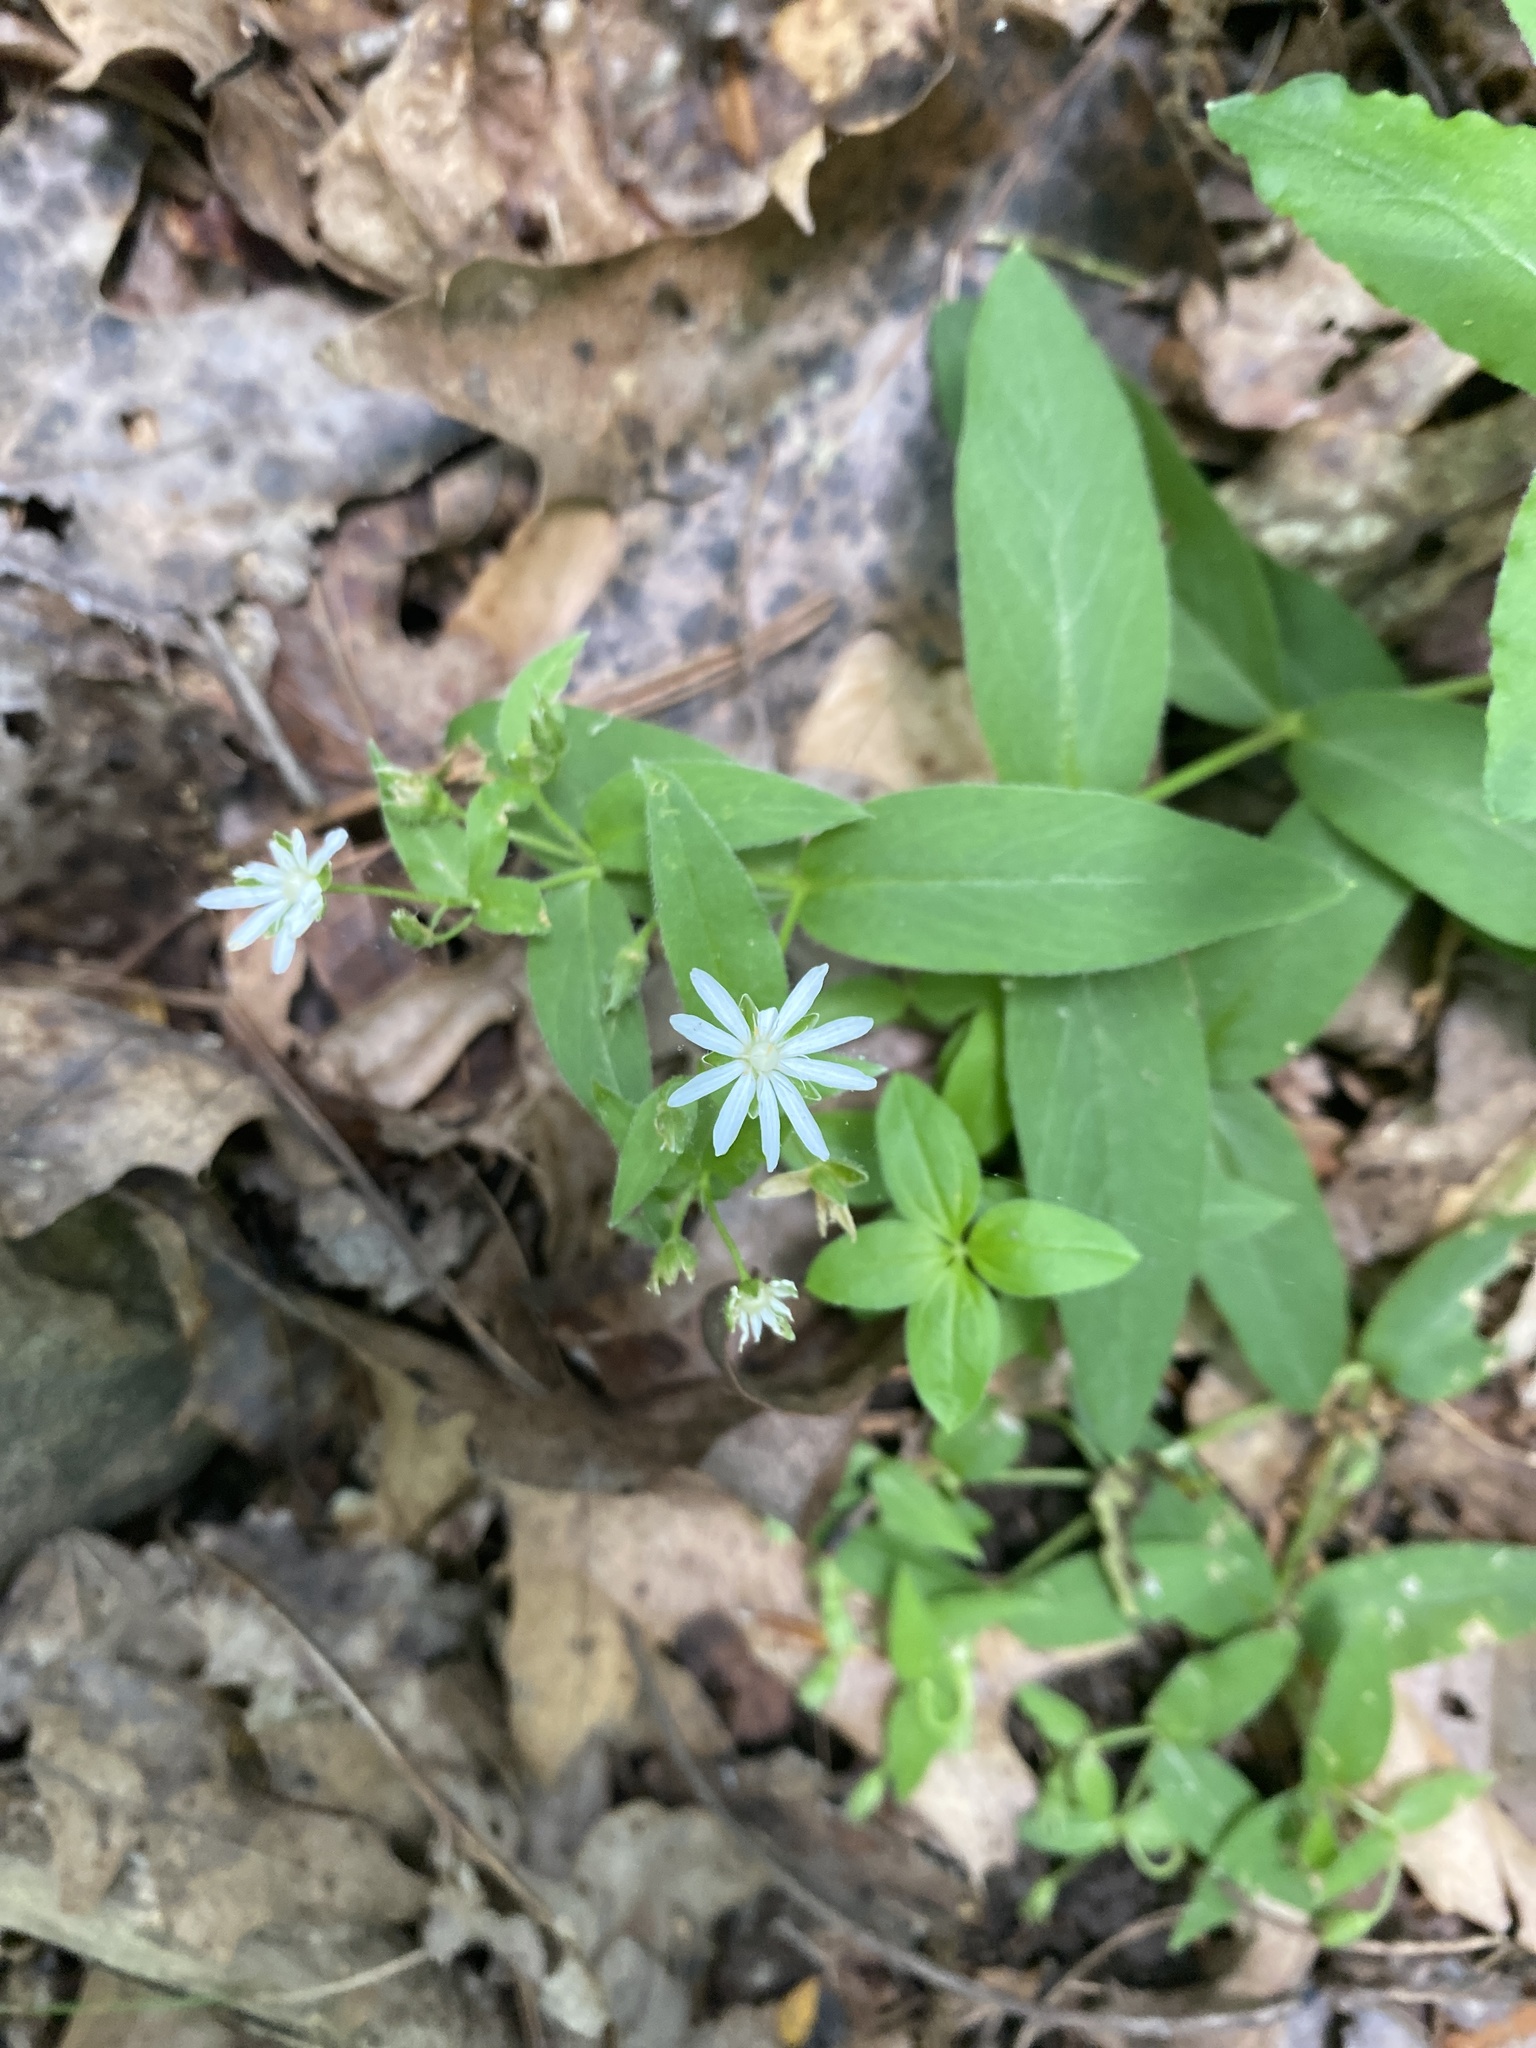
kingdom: Plantae
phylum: Tracheophyta
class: Magnoliopsida
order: Caryophyllales
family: Caryophyllaceae
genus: Stellaria
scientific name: Stellaria pubera
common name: Star chickweed
